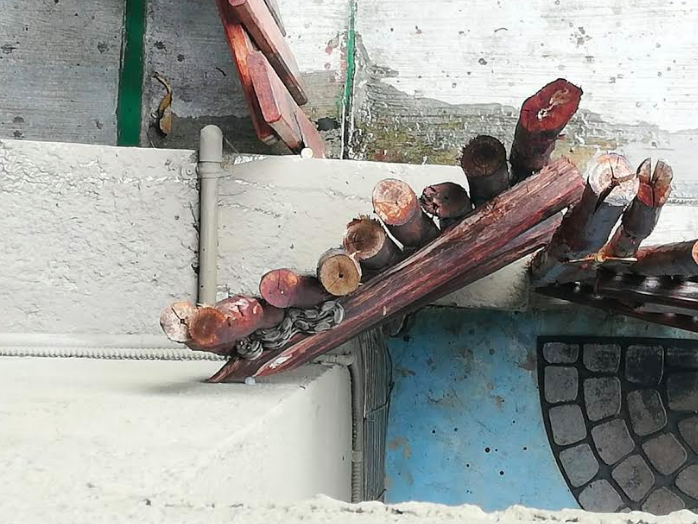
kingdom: Animalia
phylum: Chordata
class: Squamata
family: Boidae
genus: Boa
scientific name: Boa imperator
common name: Central american boa
